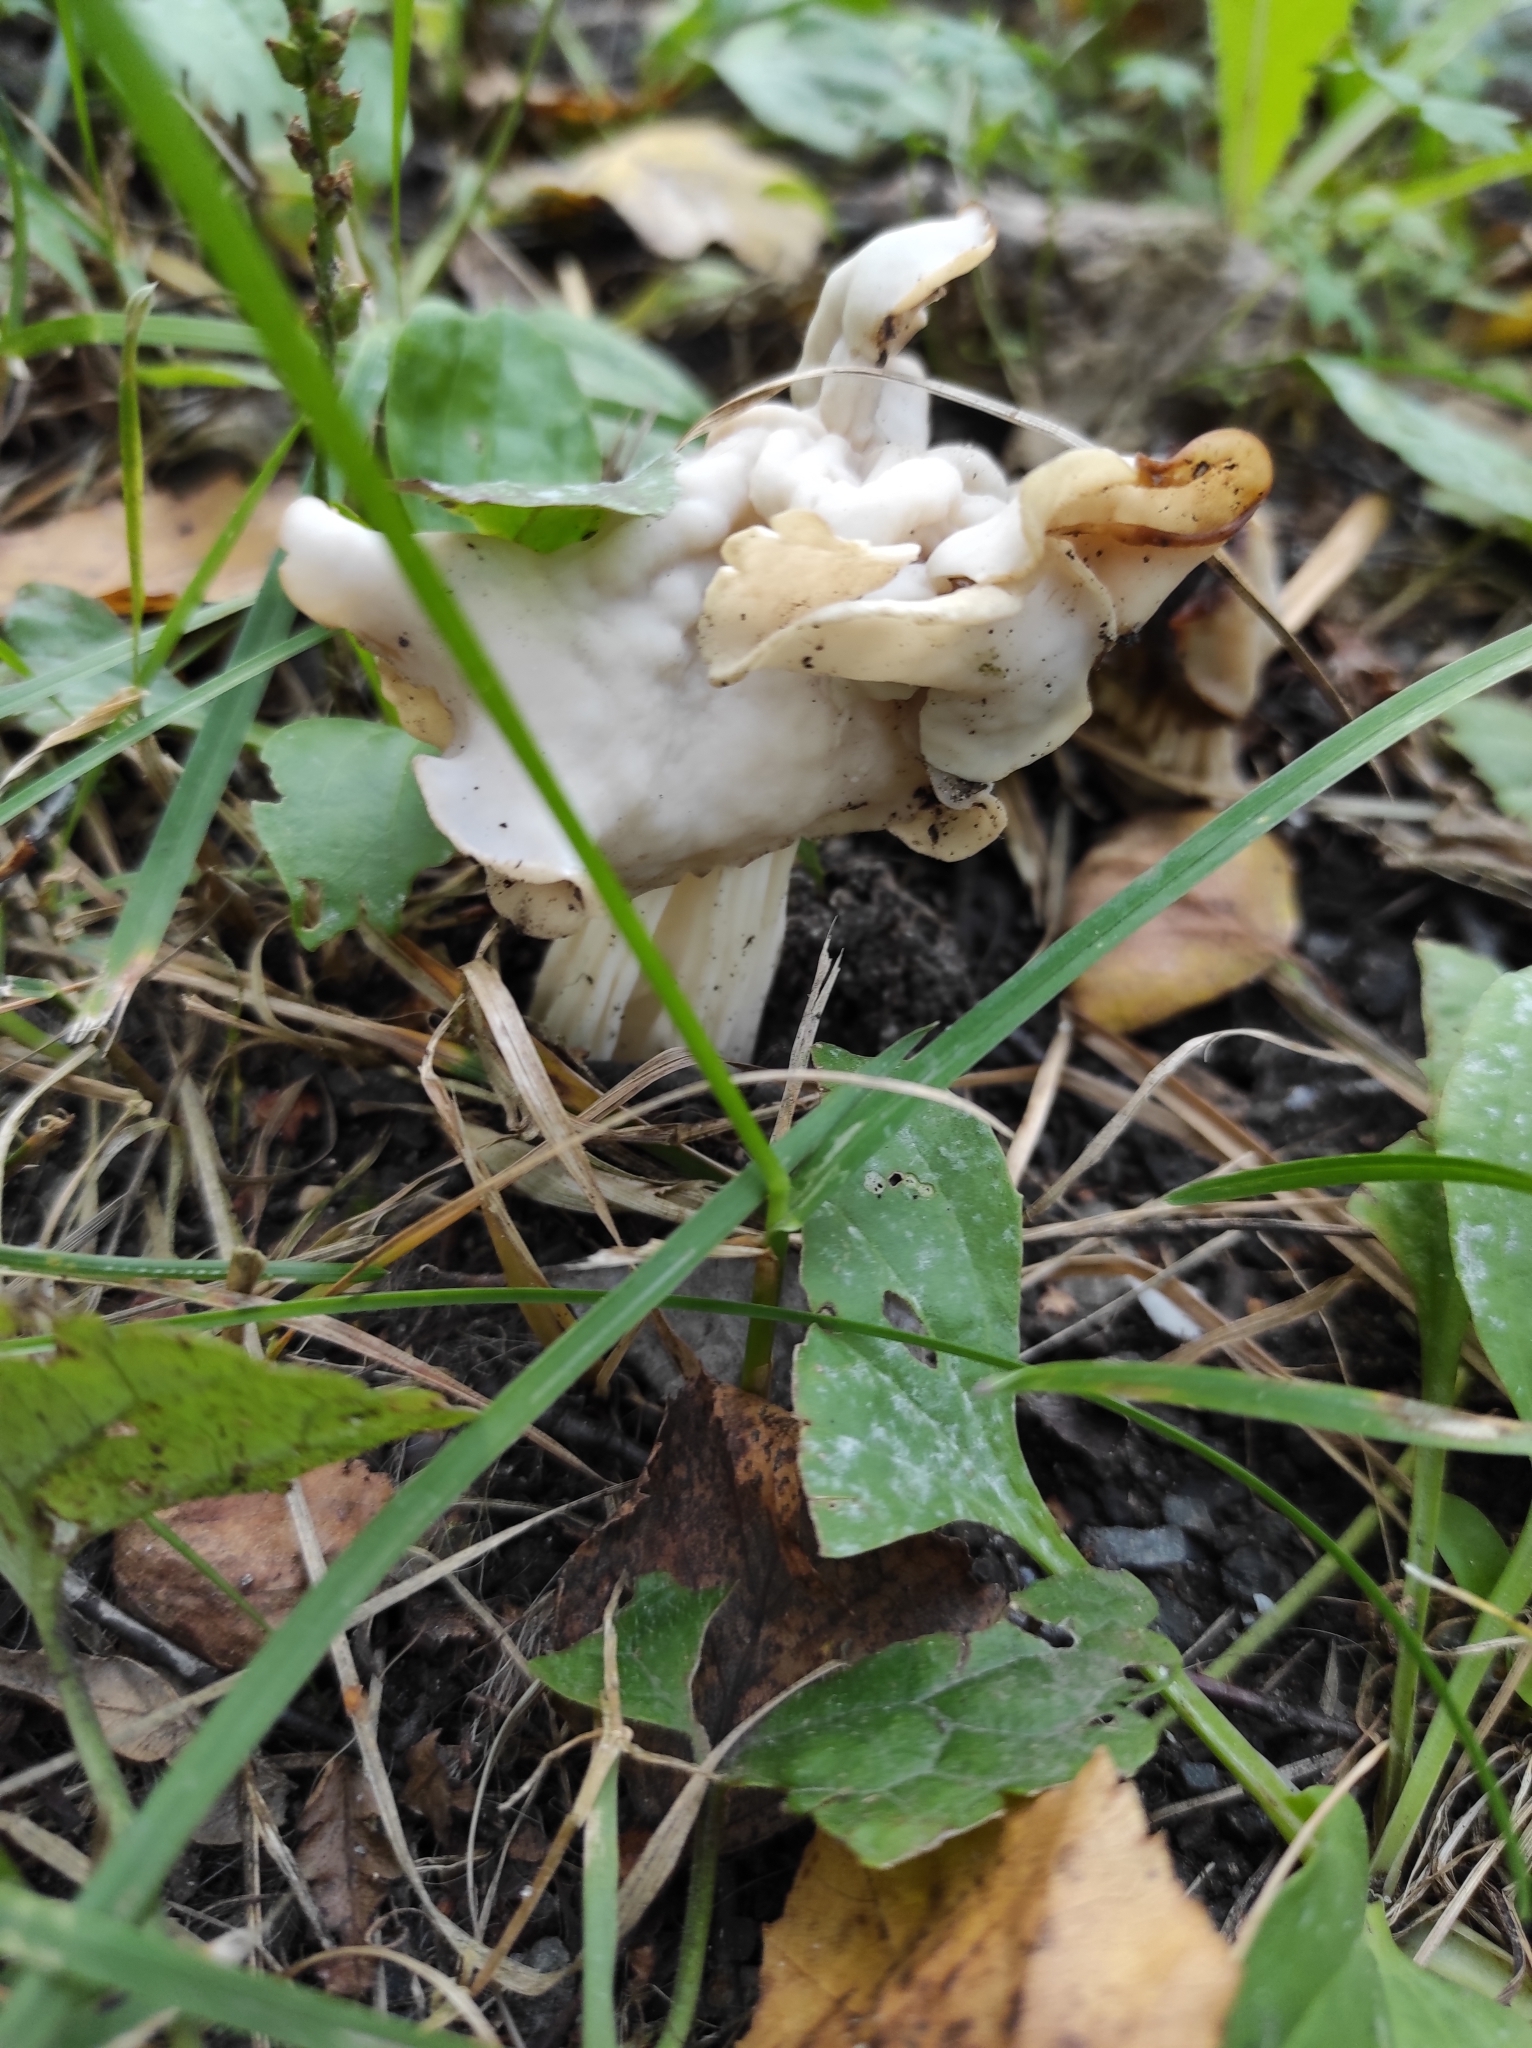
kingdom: Fungi
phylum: Ascomycota
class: Pezizomycetes
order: Pezizales
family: Helvellaceae
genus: Helvella
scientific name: Helvella crispa
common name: White saddle
